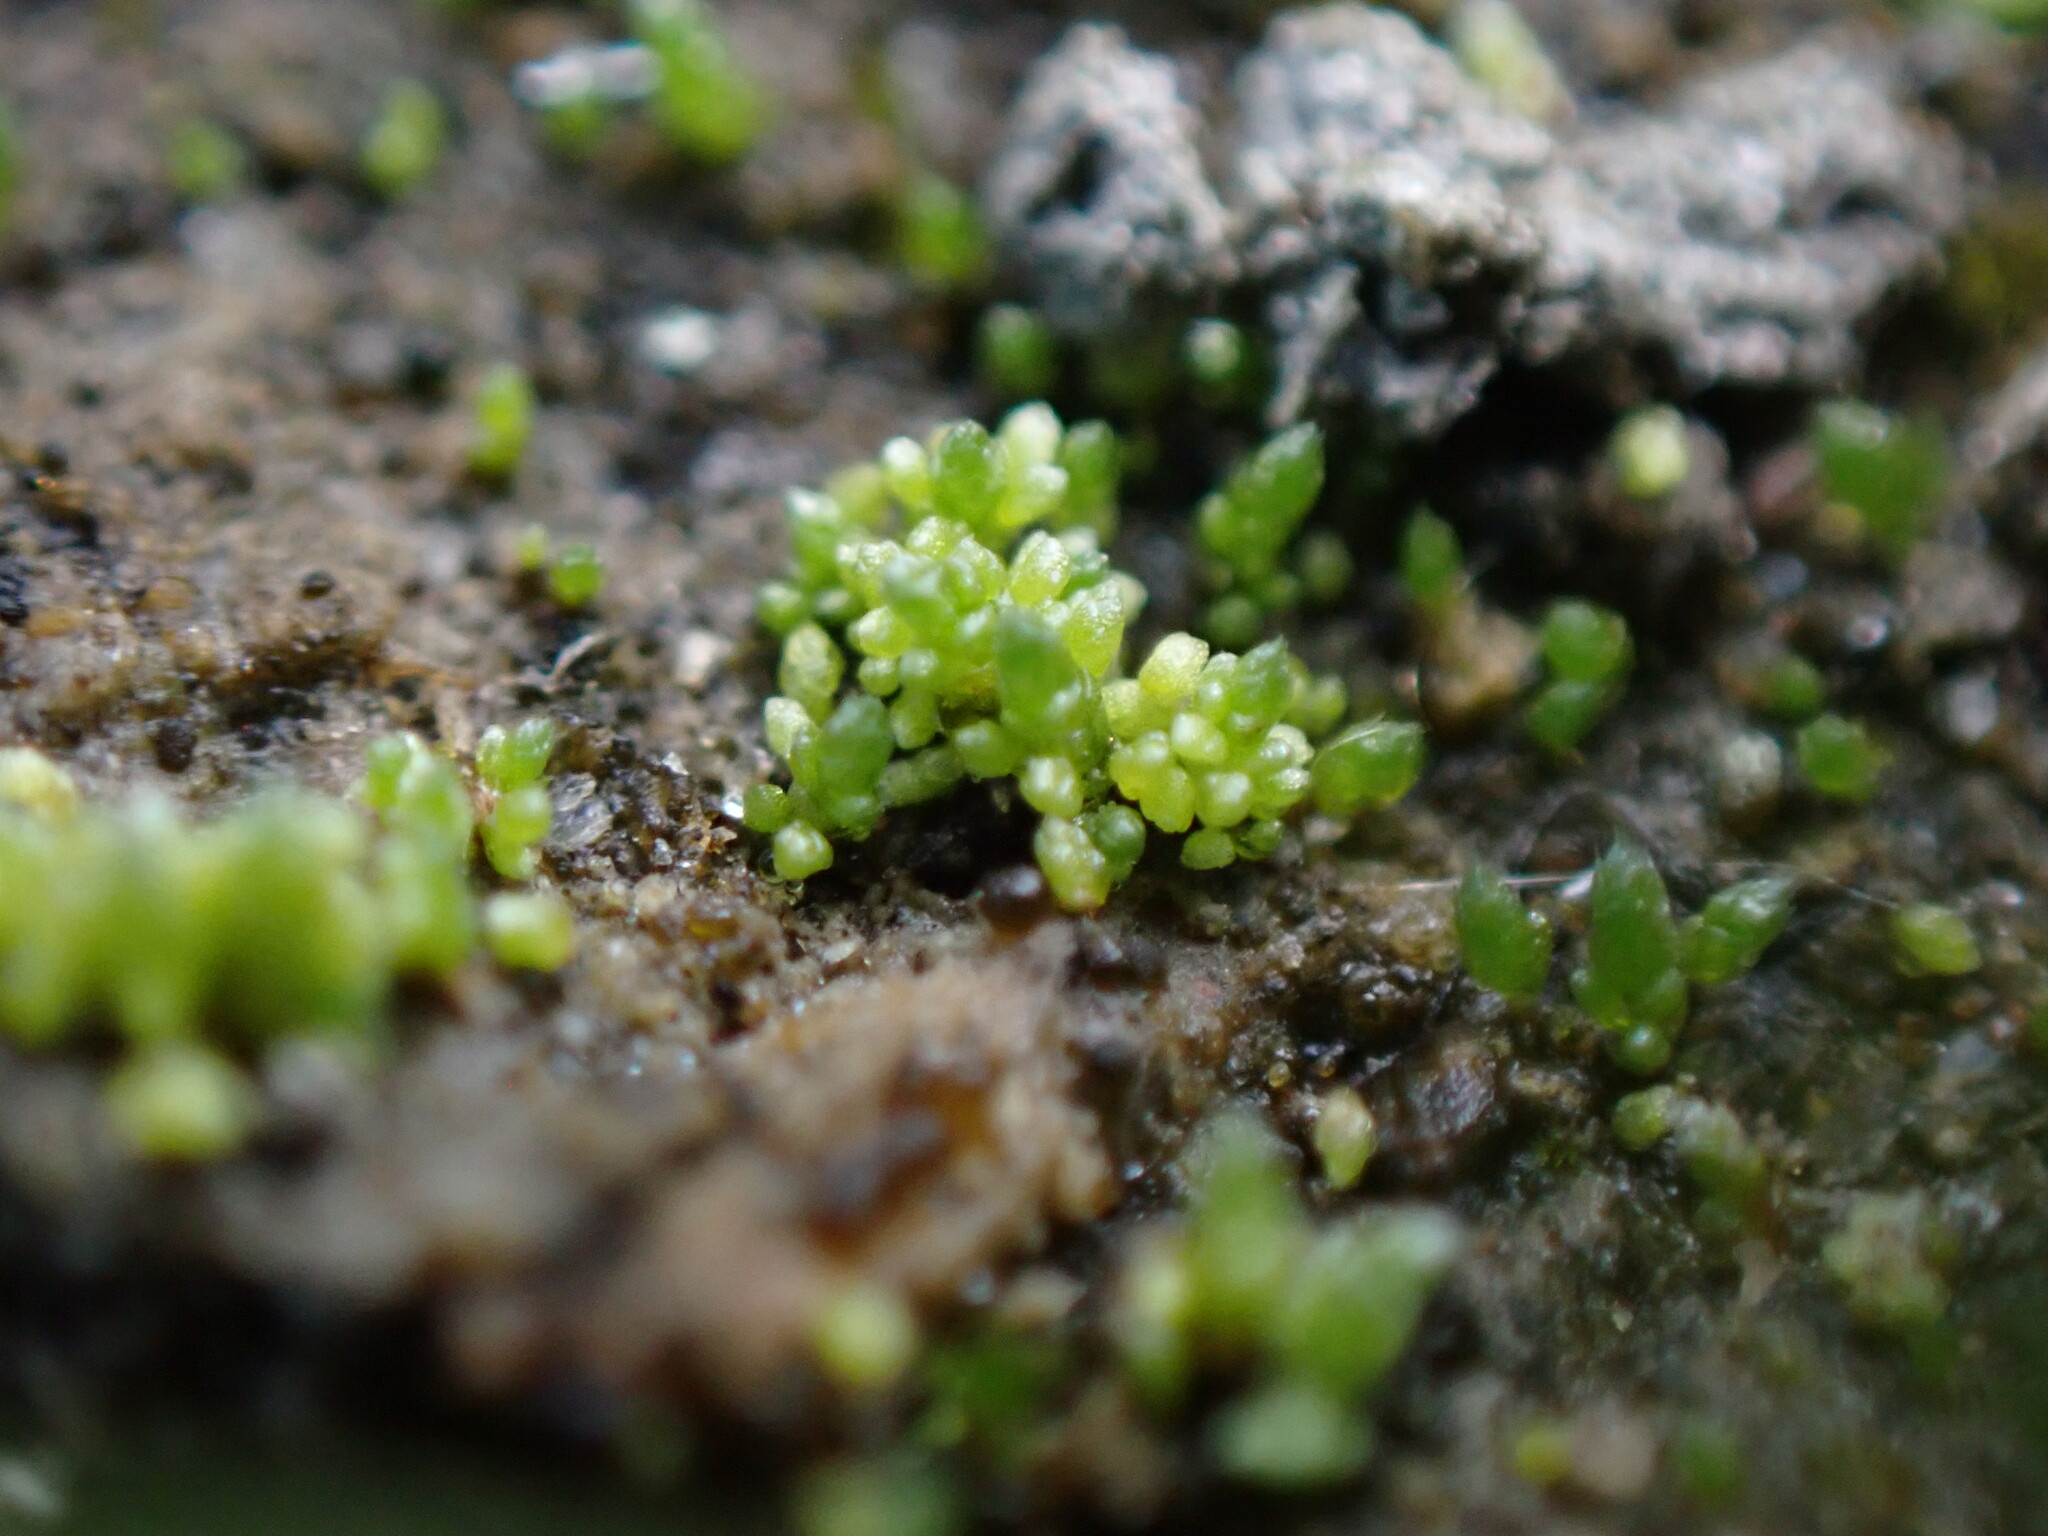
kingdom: Plantae
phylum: Bryophyta
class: Bryopsida
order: Bryales
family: Bryaceae
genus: Bryum
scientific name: Bryum argenteum
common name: Silver-moss
